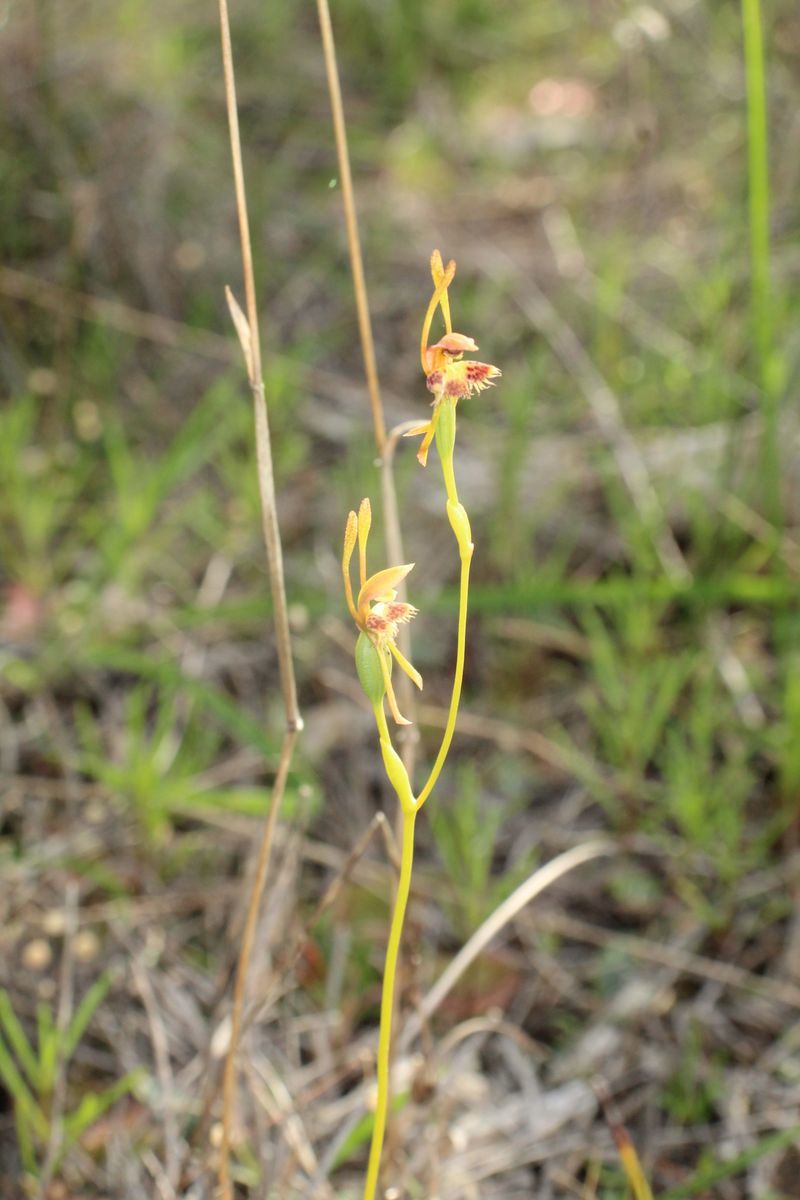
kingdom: Plantae
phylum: Tracheophyta
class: Liliopsida
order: Asparagales
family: Orchidaceae
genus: Leporella
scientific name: Leporella fimbriata
